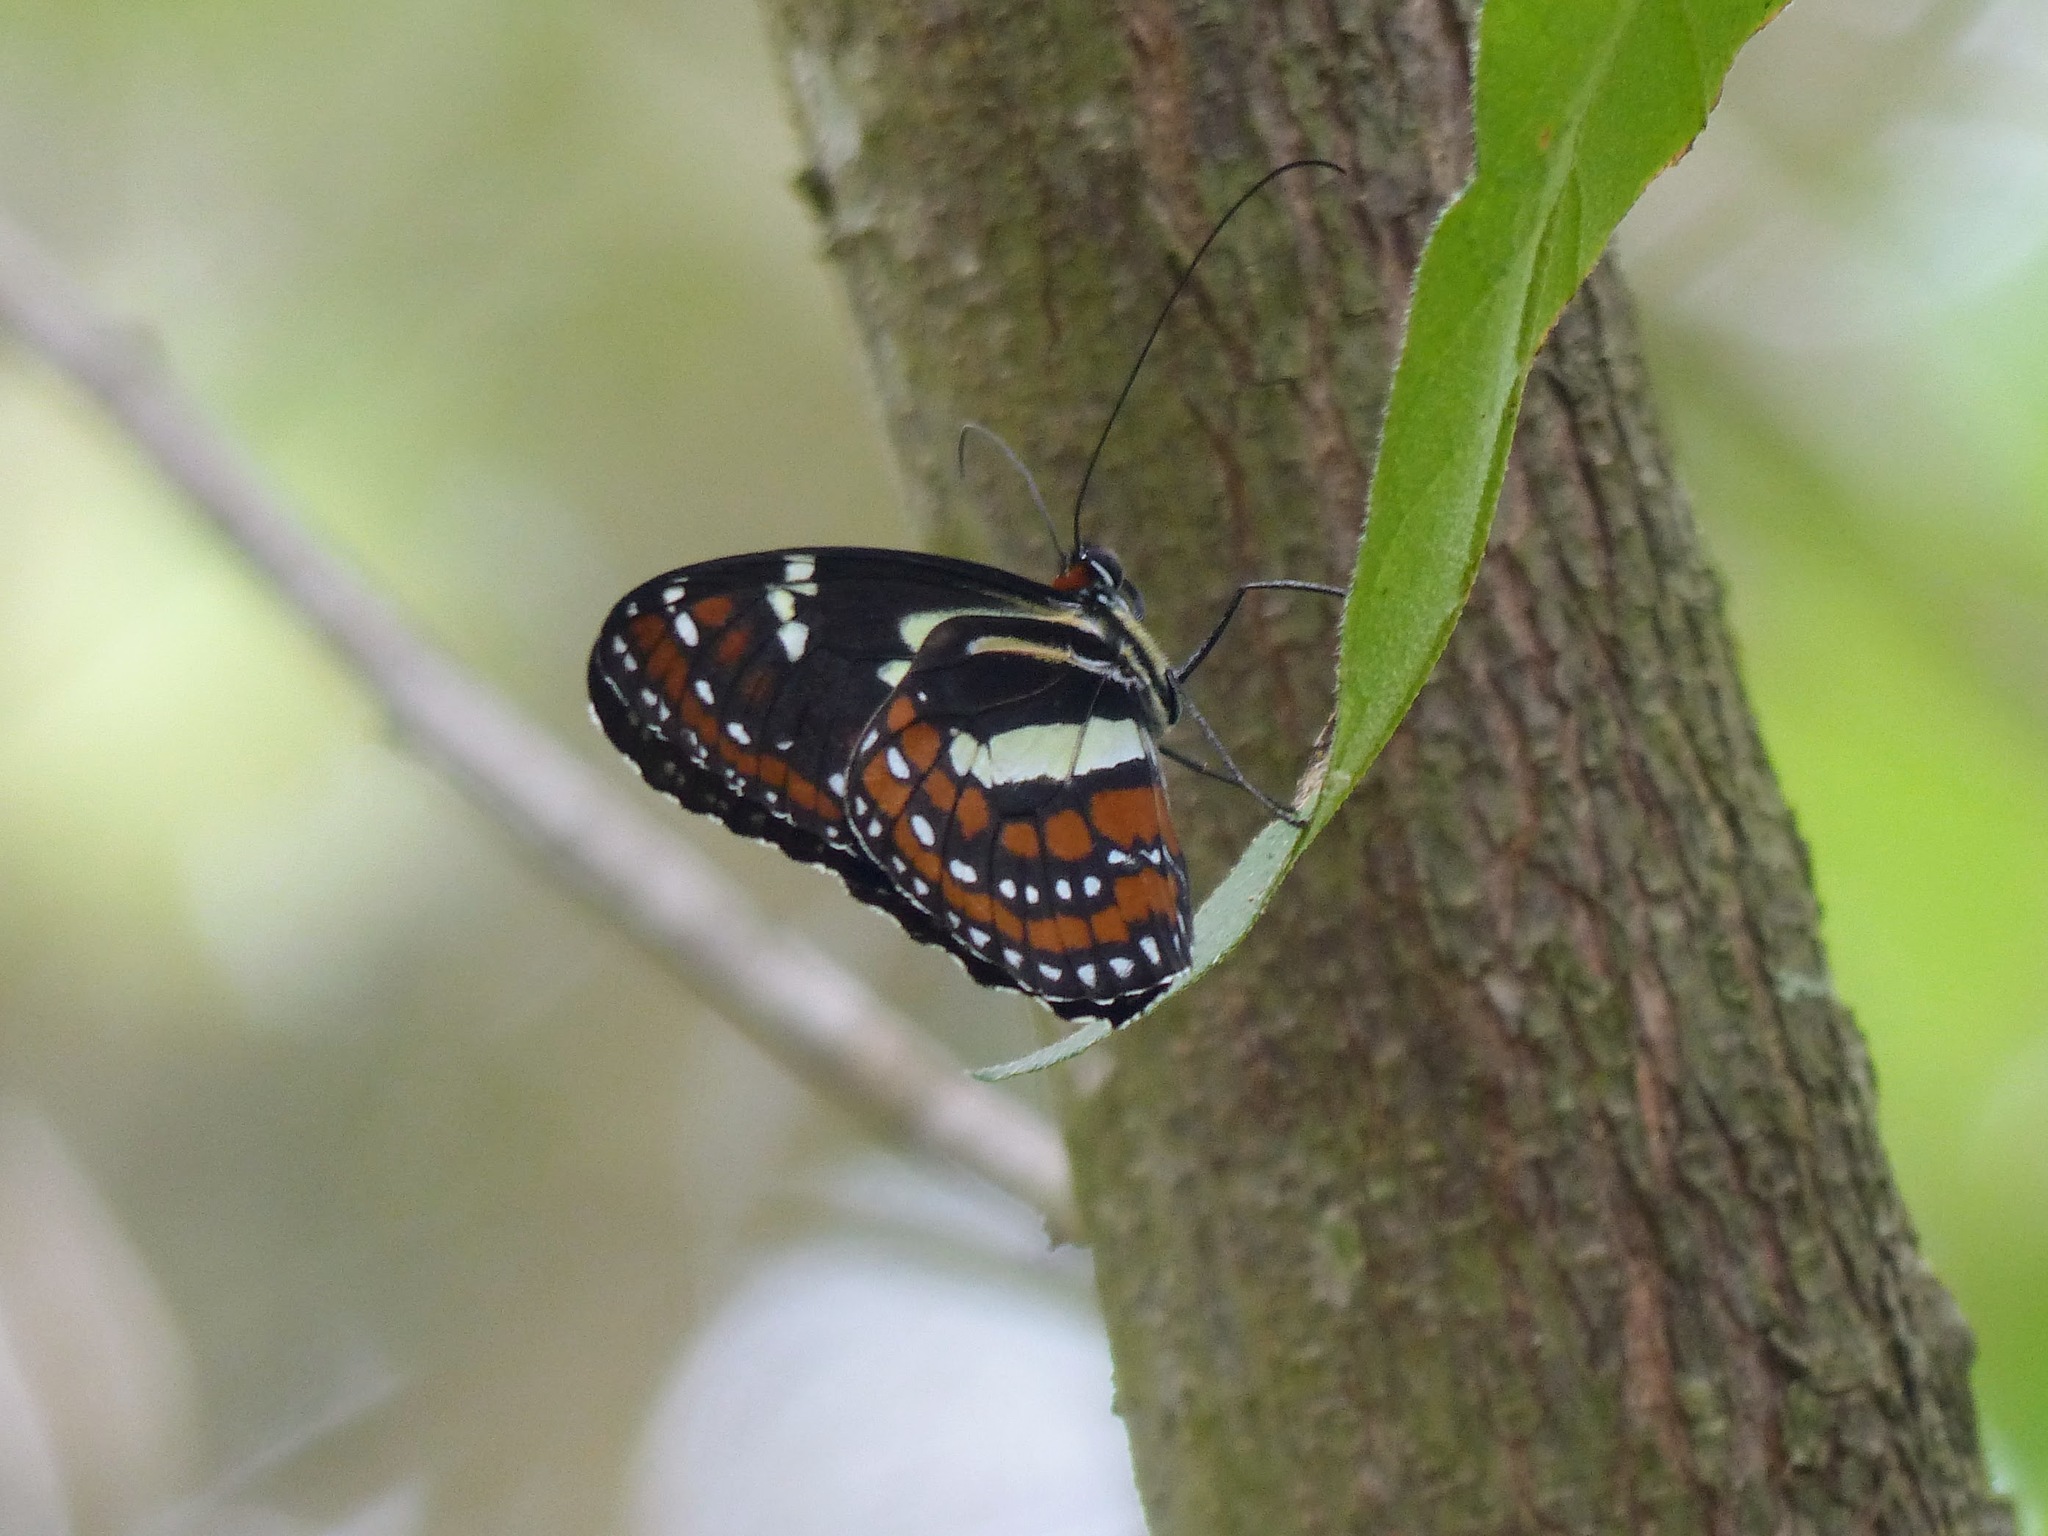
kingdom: Animalia
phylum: Arthropoda
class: Insecta
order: Lepidoptera
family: Nymphalidae
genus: Elzunia
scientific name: Elzunia pavonii
